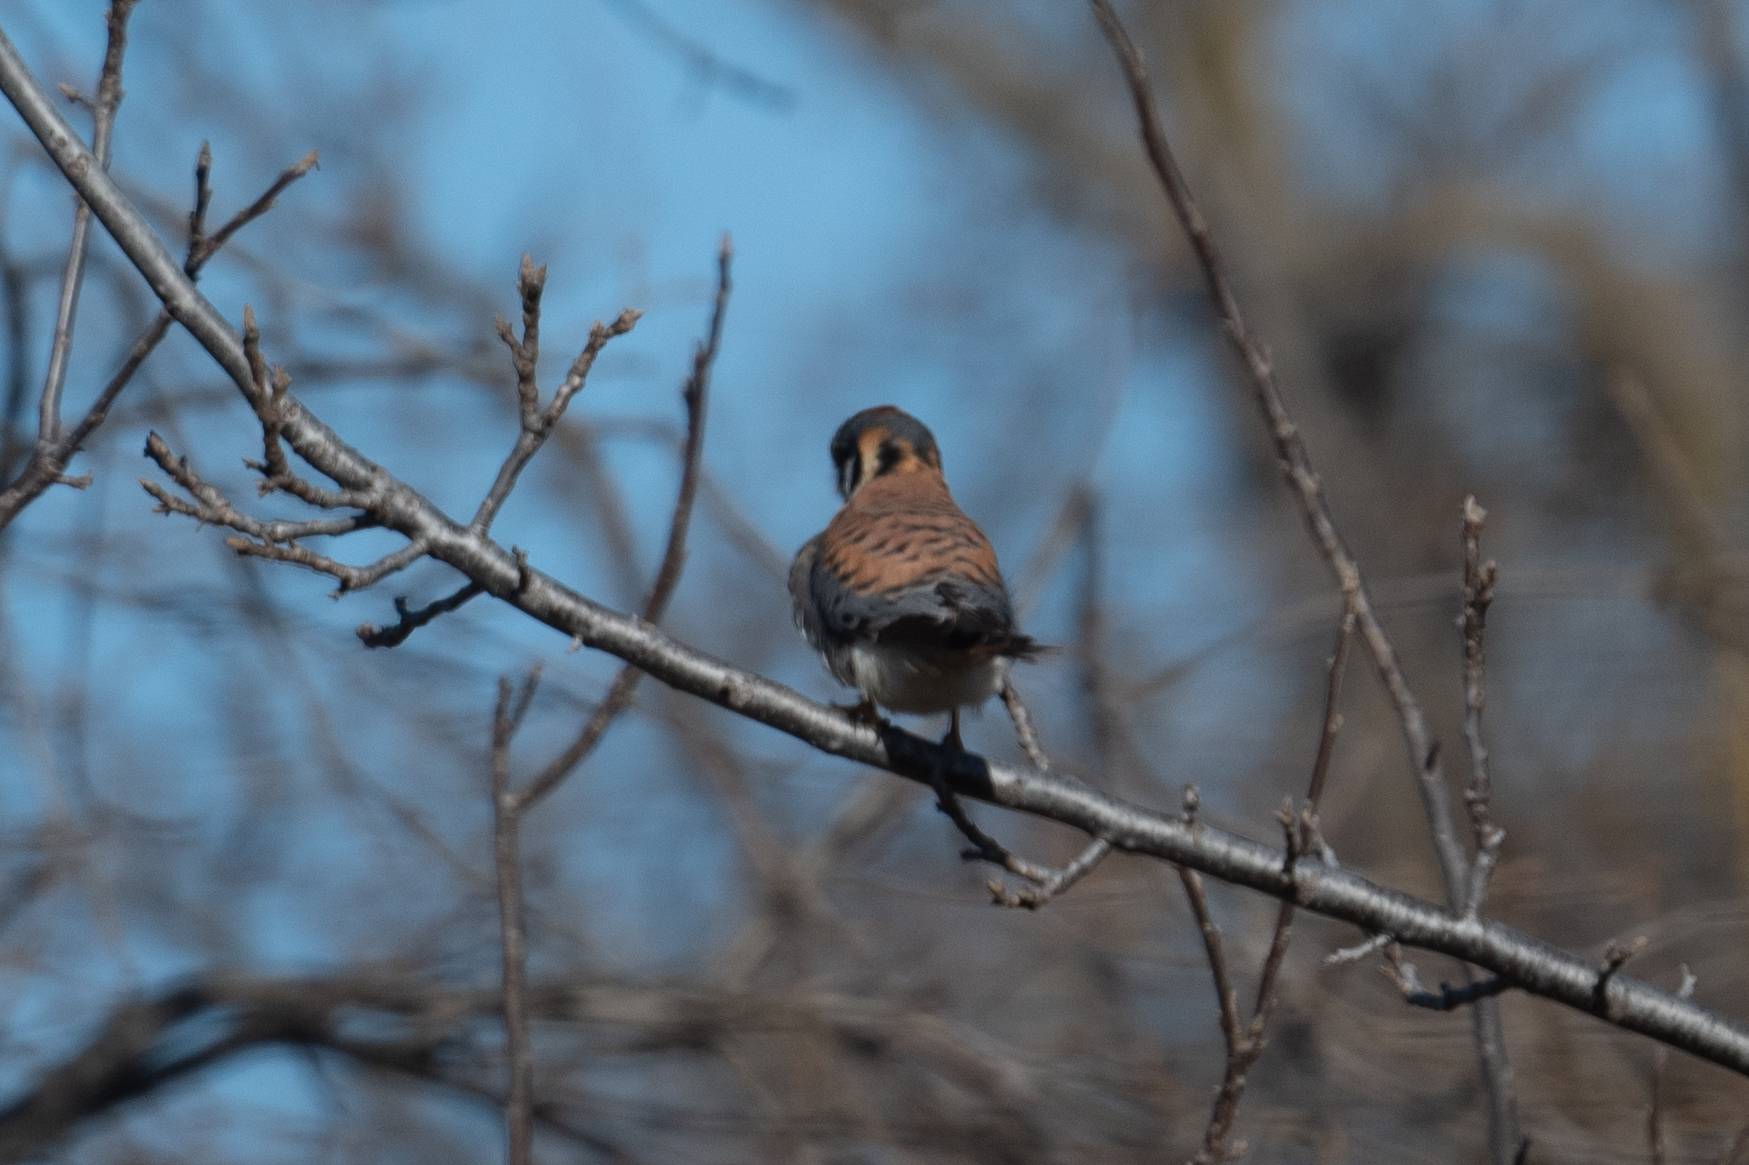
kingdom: Animalia
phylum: Chordata
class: Aves
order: Falconiformes
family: Falconidae
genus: Falco
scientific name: Falco sparverius
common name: American kestrel
